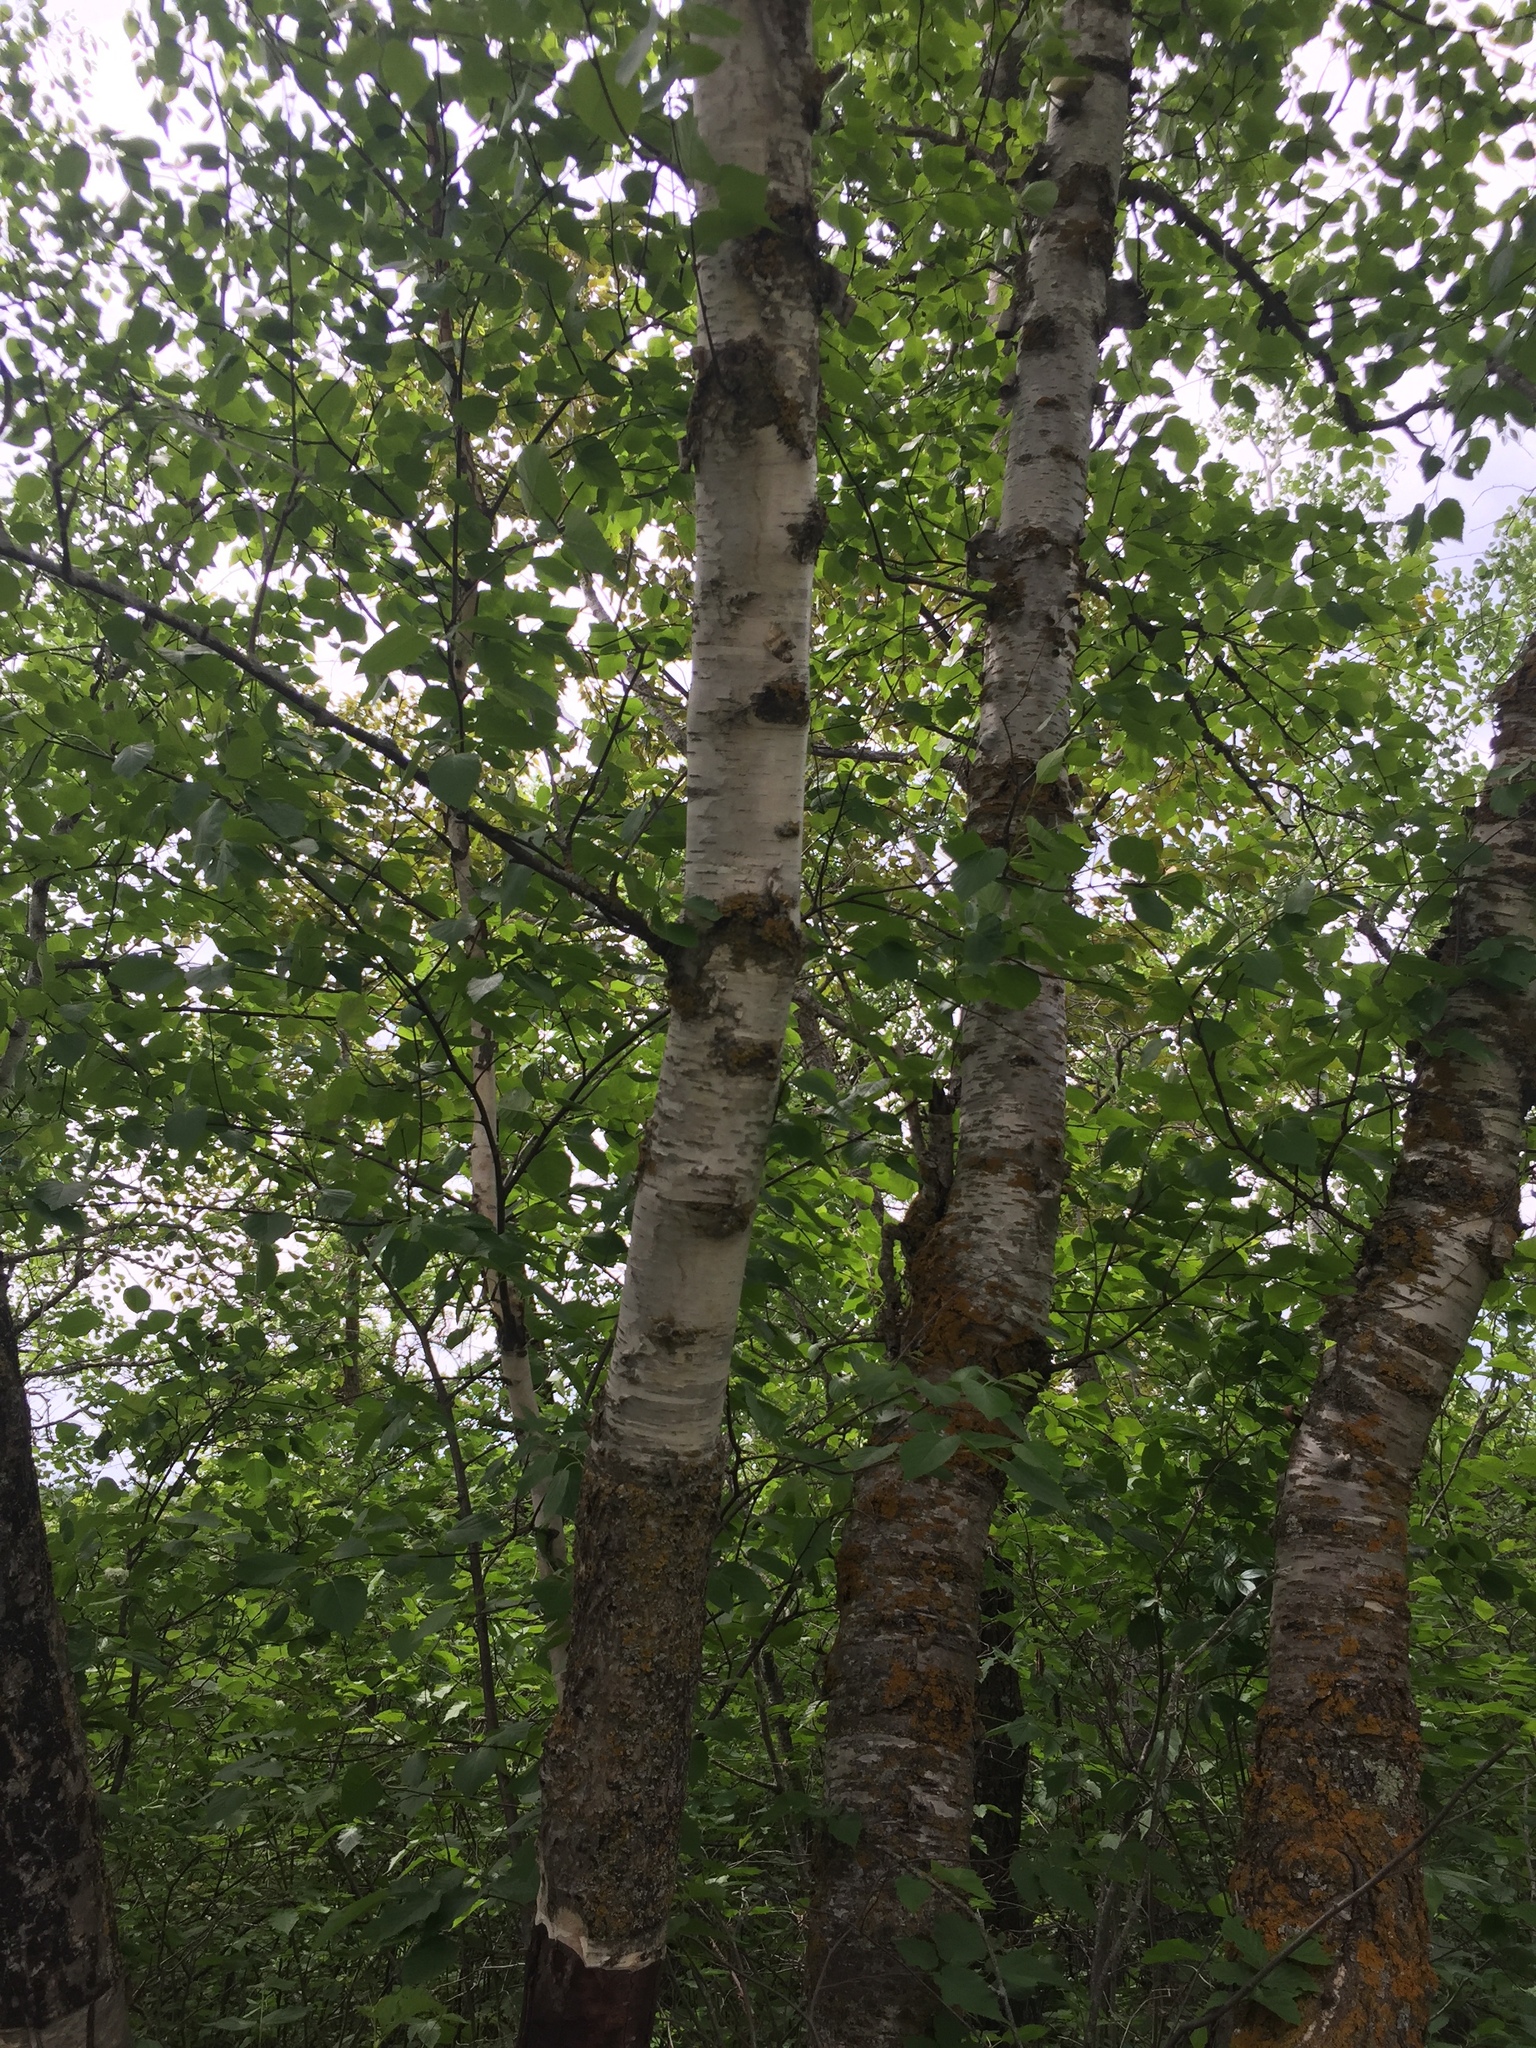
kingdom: Plantae
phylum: Tracheophyta
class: Magnoliopsida
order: Fagales
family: Betulaceae
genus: Betula
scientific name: Betula papyrifera
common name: Paper birch
